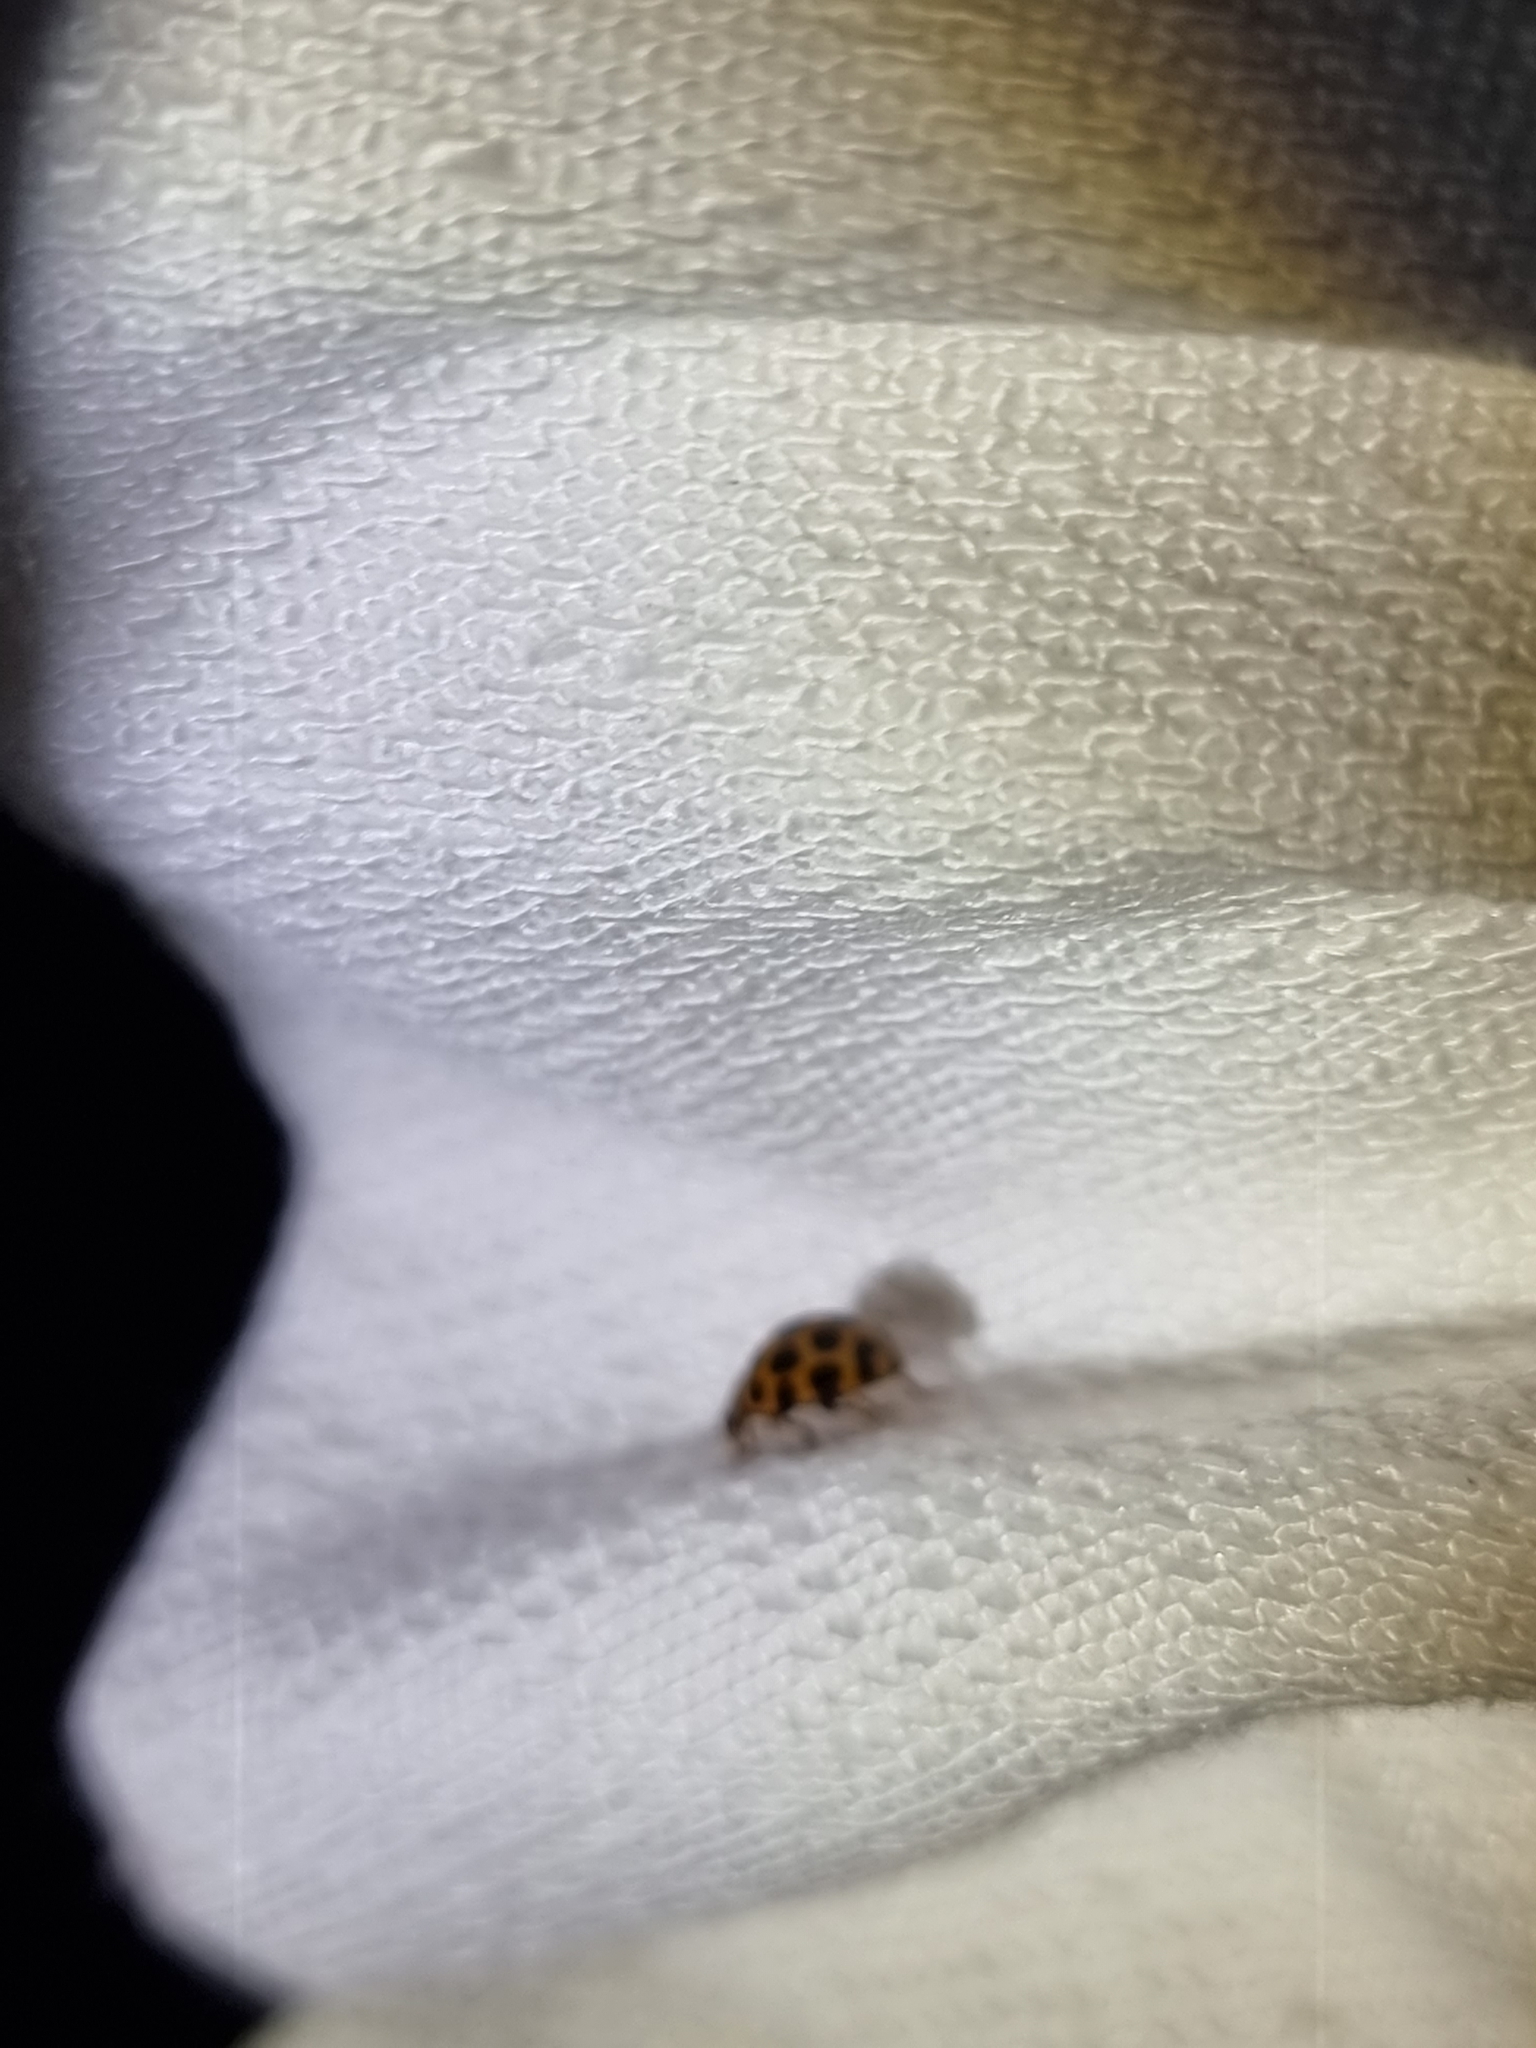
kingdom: Animalia
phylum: Arthropoda
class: Insecta
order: Coleoptera
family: Coccinellidae
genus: Harmonia
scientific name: Harmonia conformis
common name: Common spotted ladybird beetle
